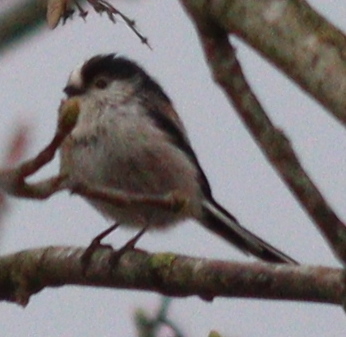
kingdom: Animalia
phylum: Chordata
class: Aves
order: Passeriformes
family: Aegithalidae
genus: Aegithalos
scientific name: Aegithalos caudatus
